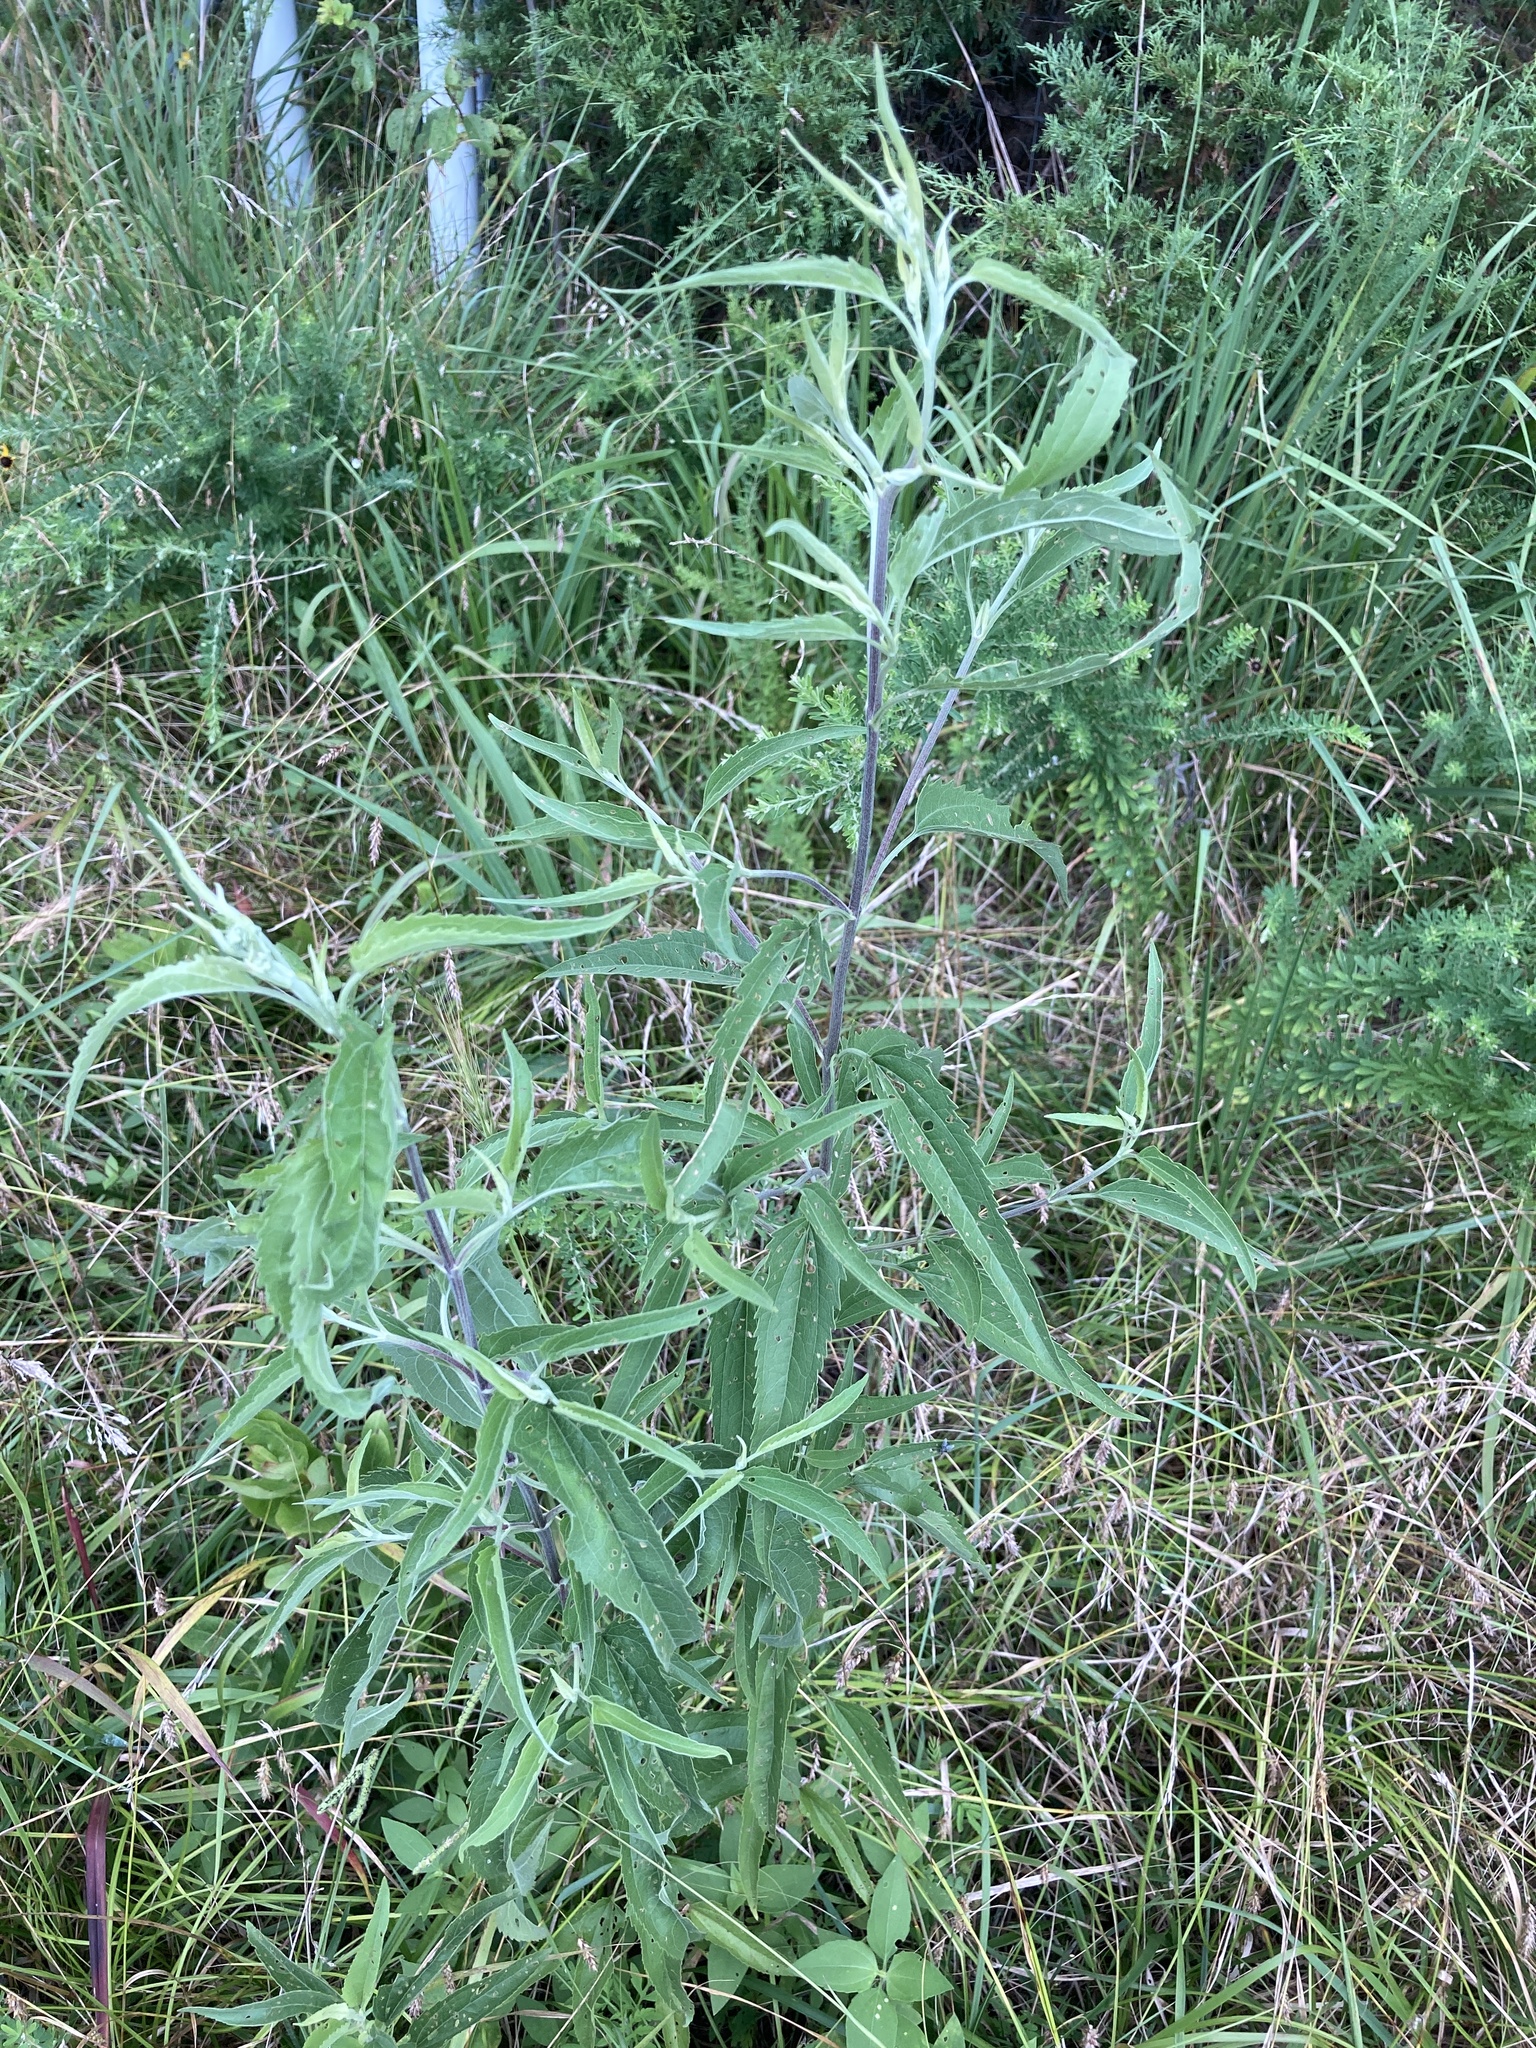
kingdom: Plantae
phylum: Tracheophyta
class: Magnoliopsida
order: Asterales
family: Asteraceae
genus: Eupatorium
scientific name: Eupatorium serotinum
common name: Late boneset
